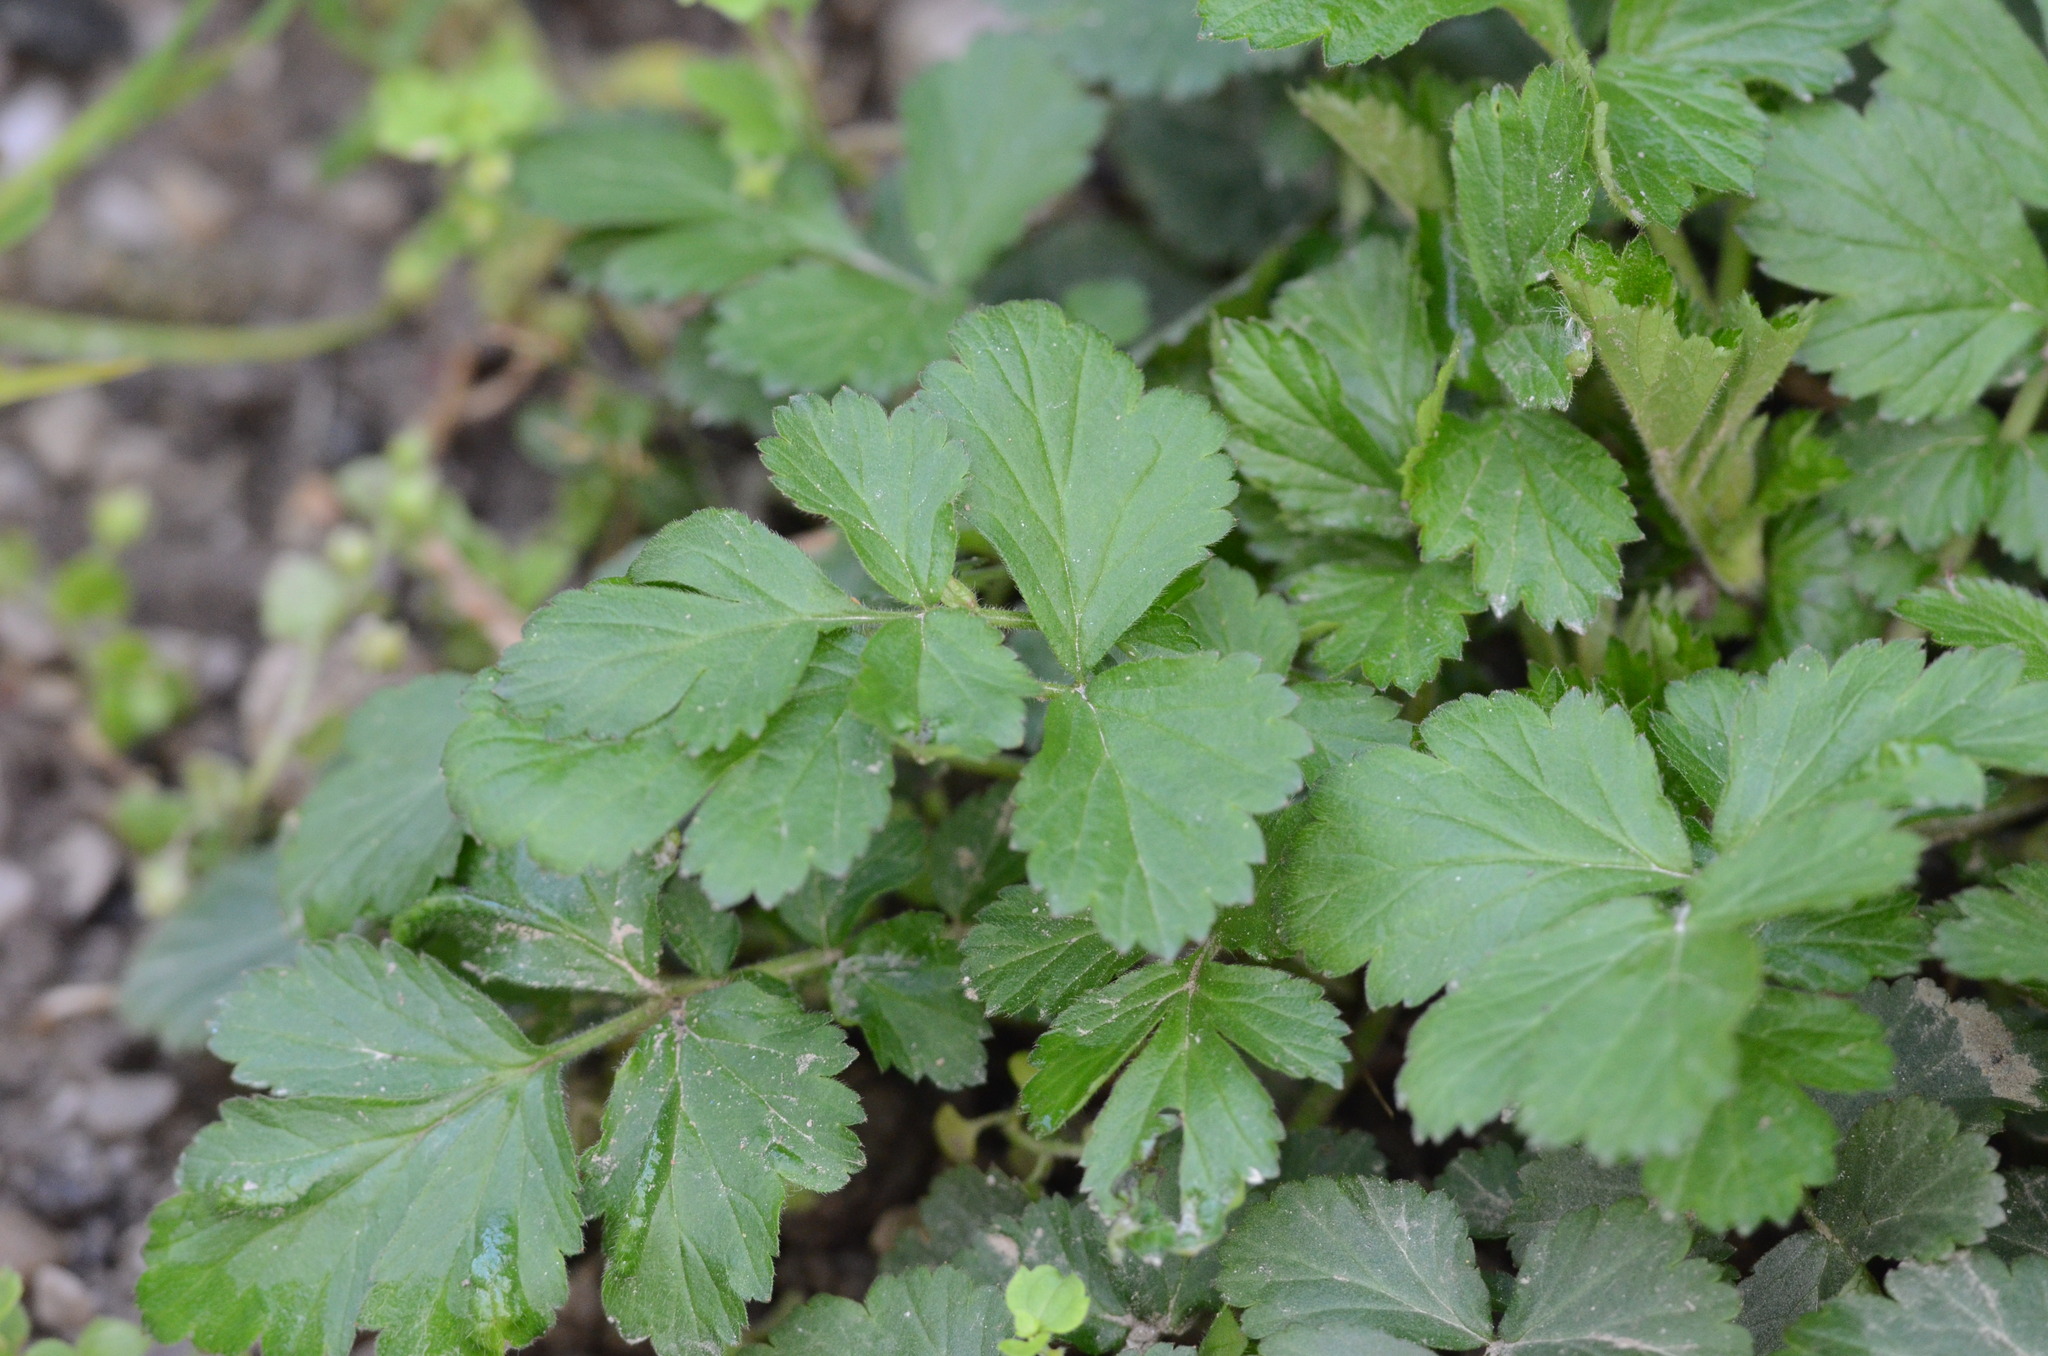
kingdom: Plantae
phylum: Tracheophyta
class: Magnoliopsida
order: Rosales
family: Rosaceae
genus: Geum
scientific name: Geum urbanum
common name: Wood avens
